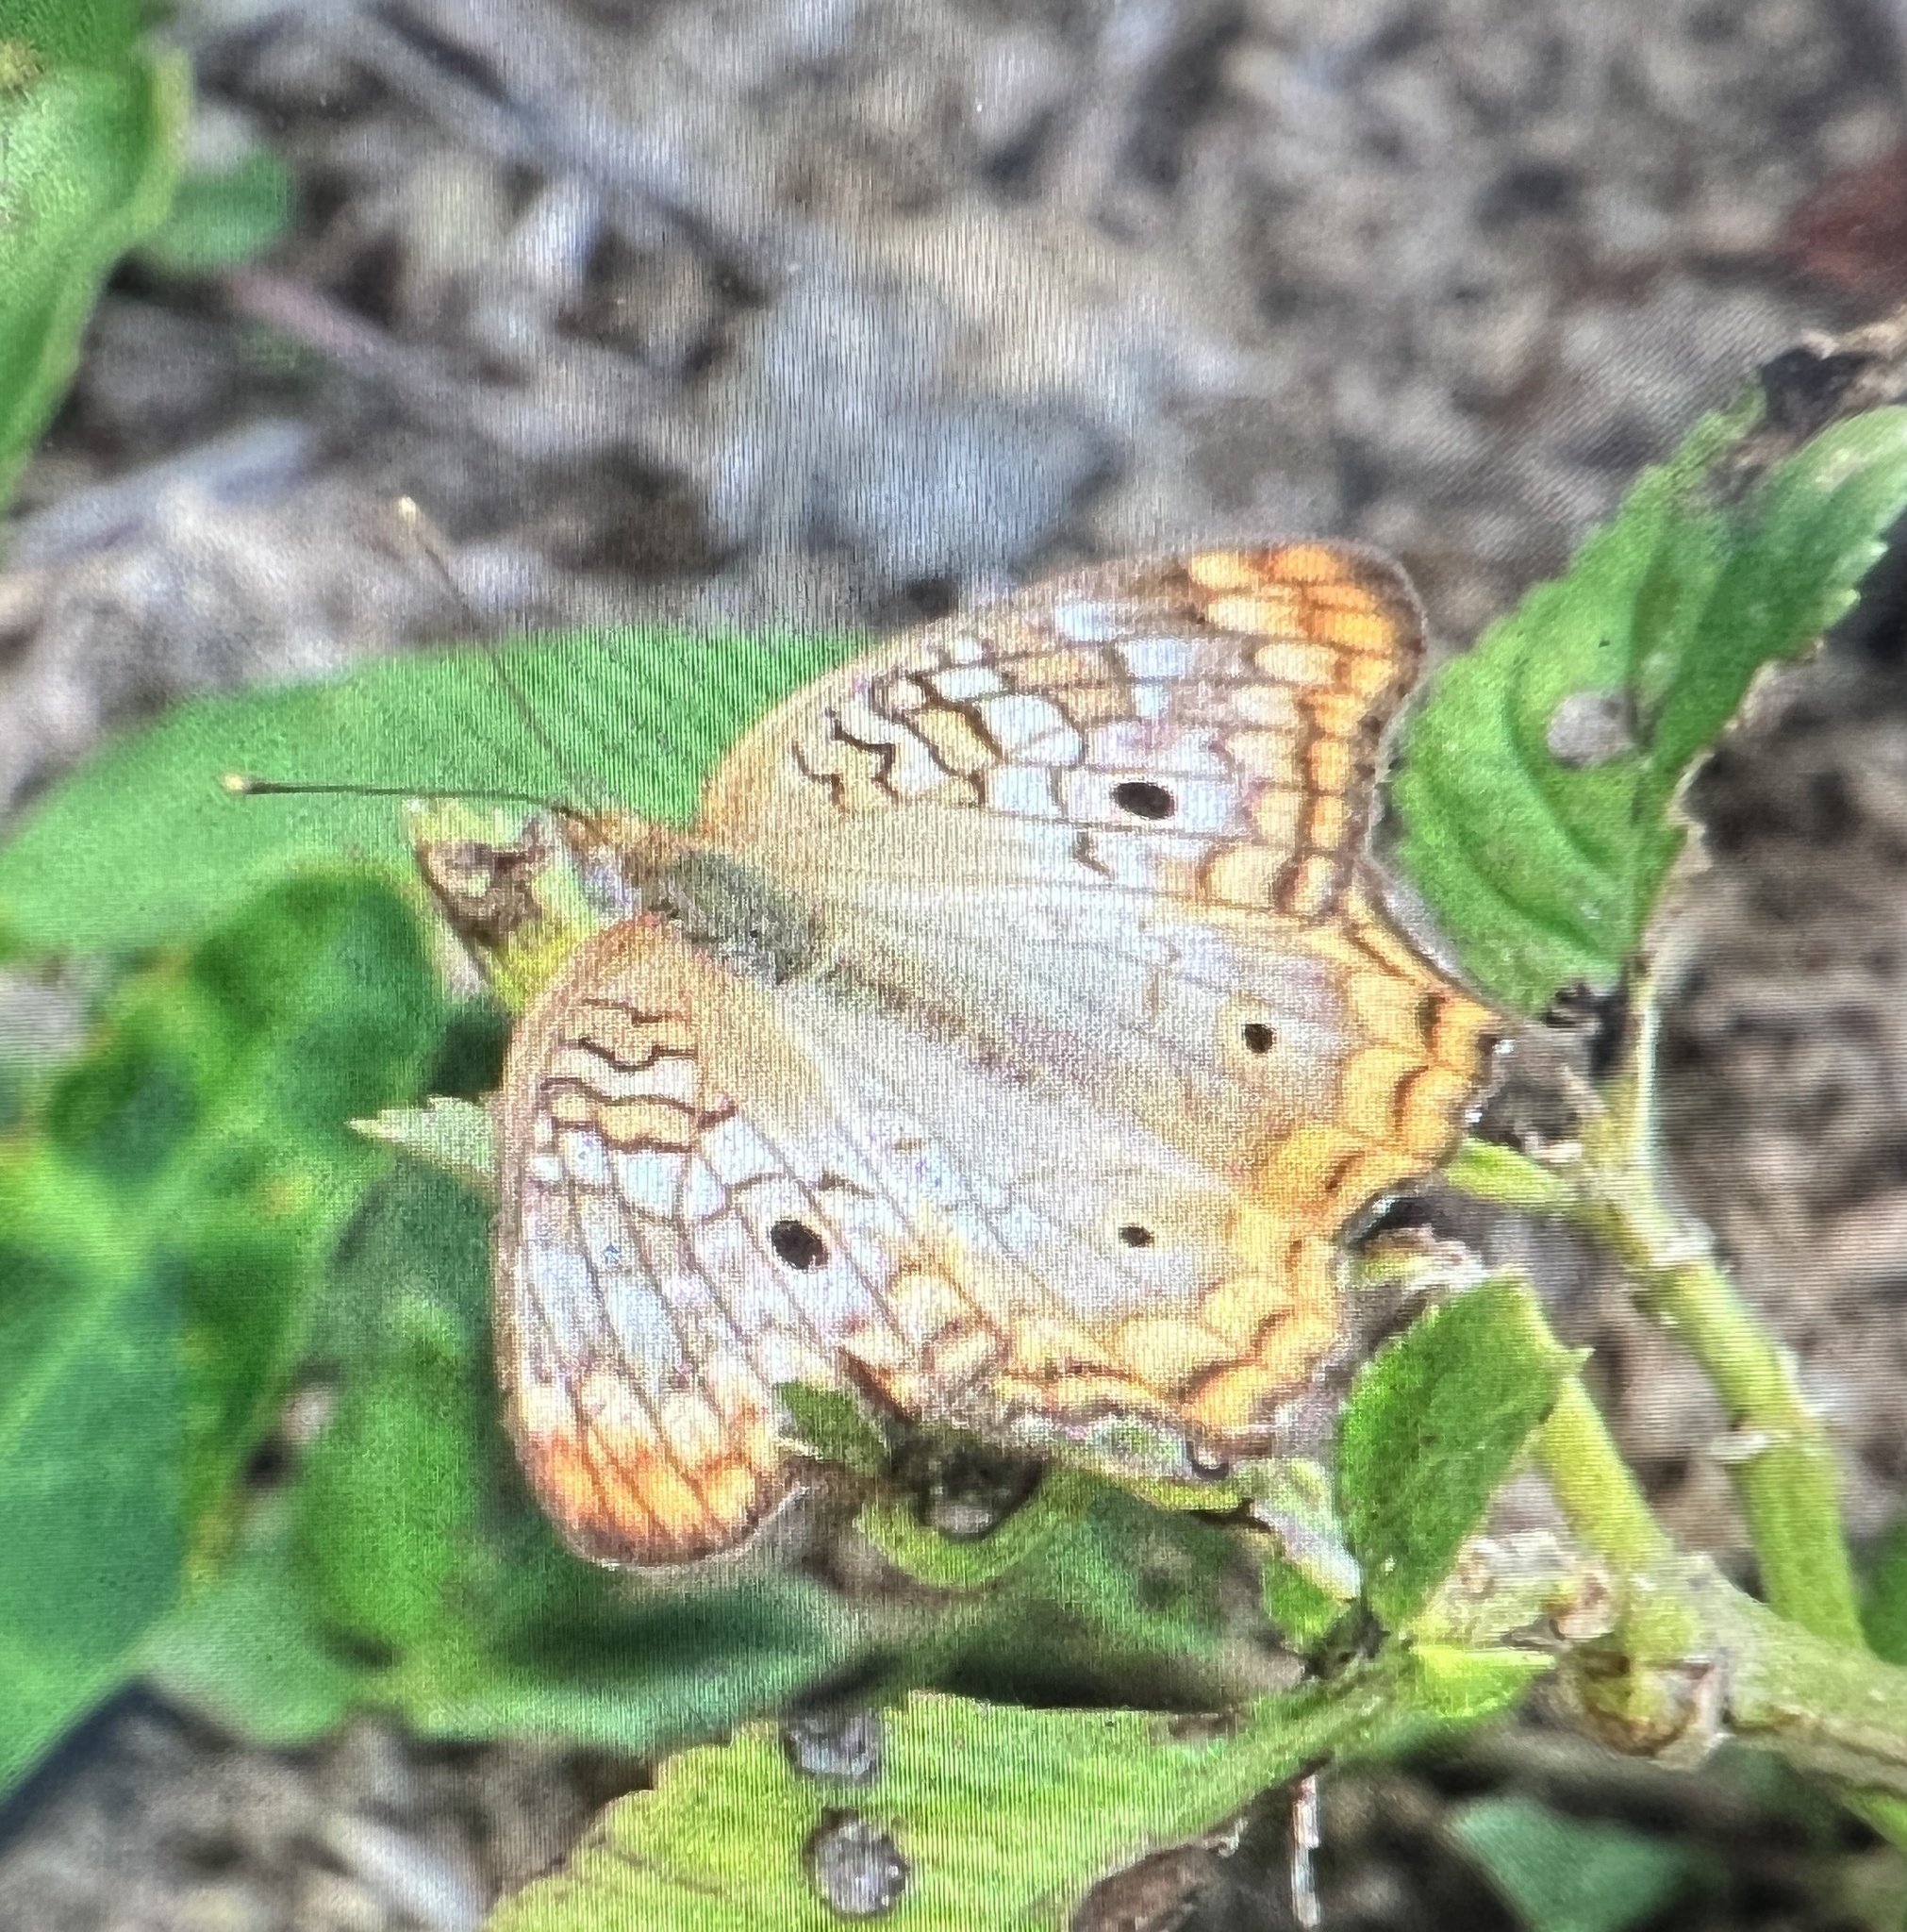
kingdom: Animalia
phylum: Arthropoda
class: Insecta
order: Lepidoptera
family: Nymphalidae
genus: Anartia
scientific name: Anartia jatrophae
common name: White peacock
